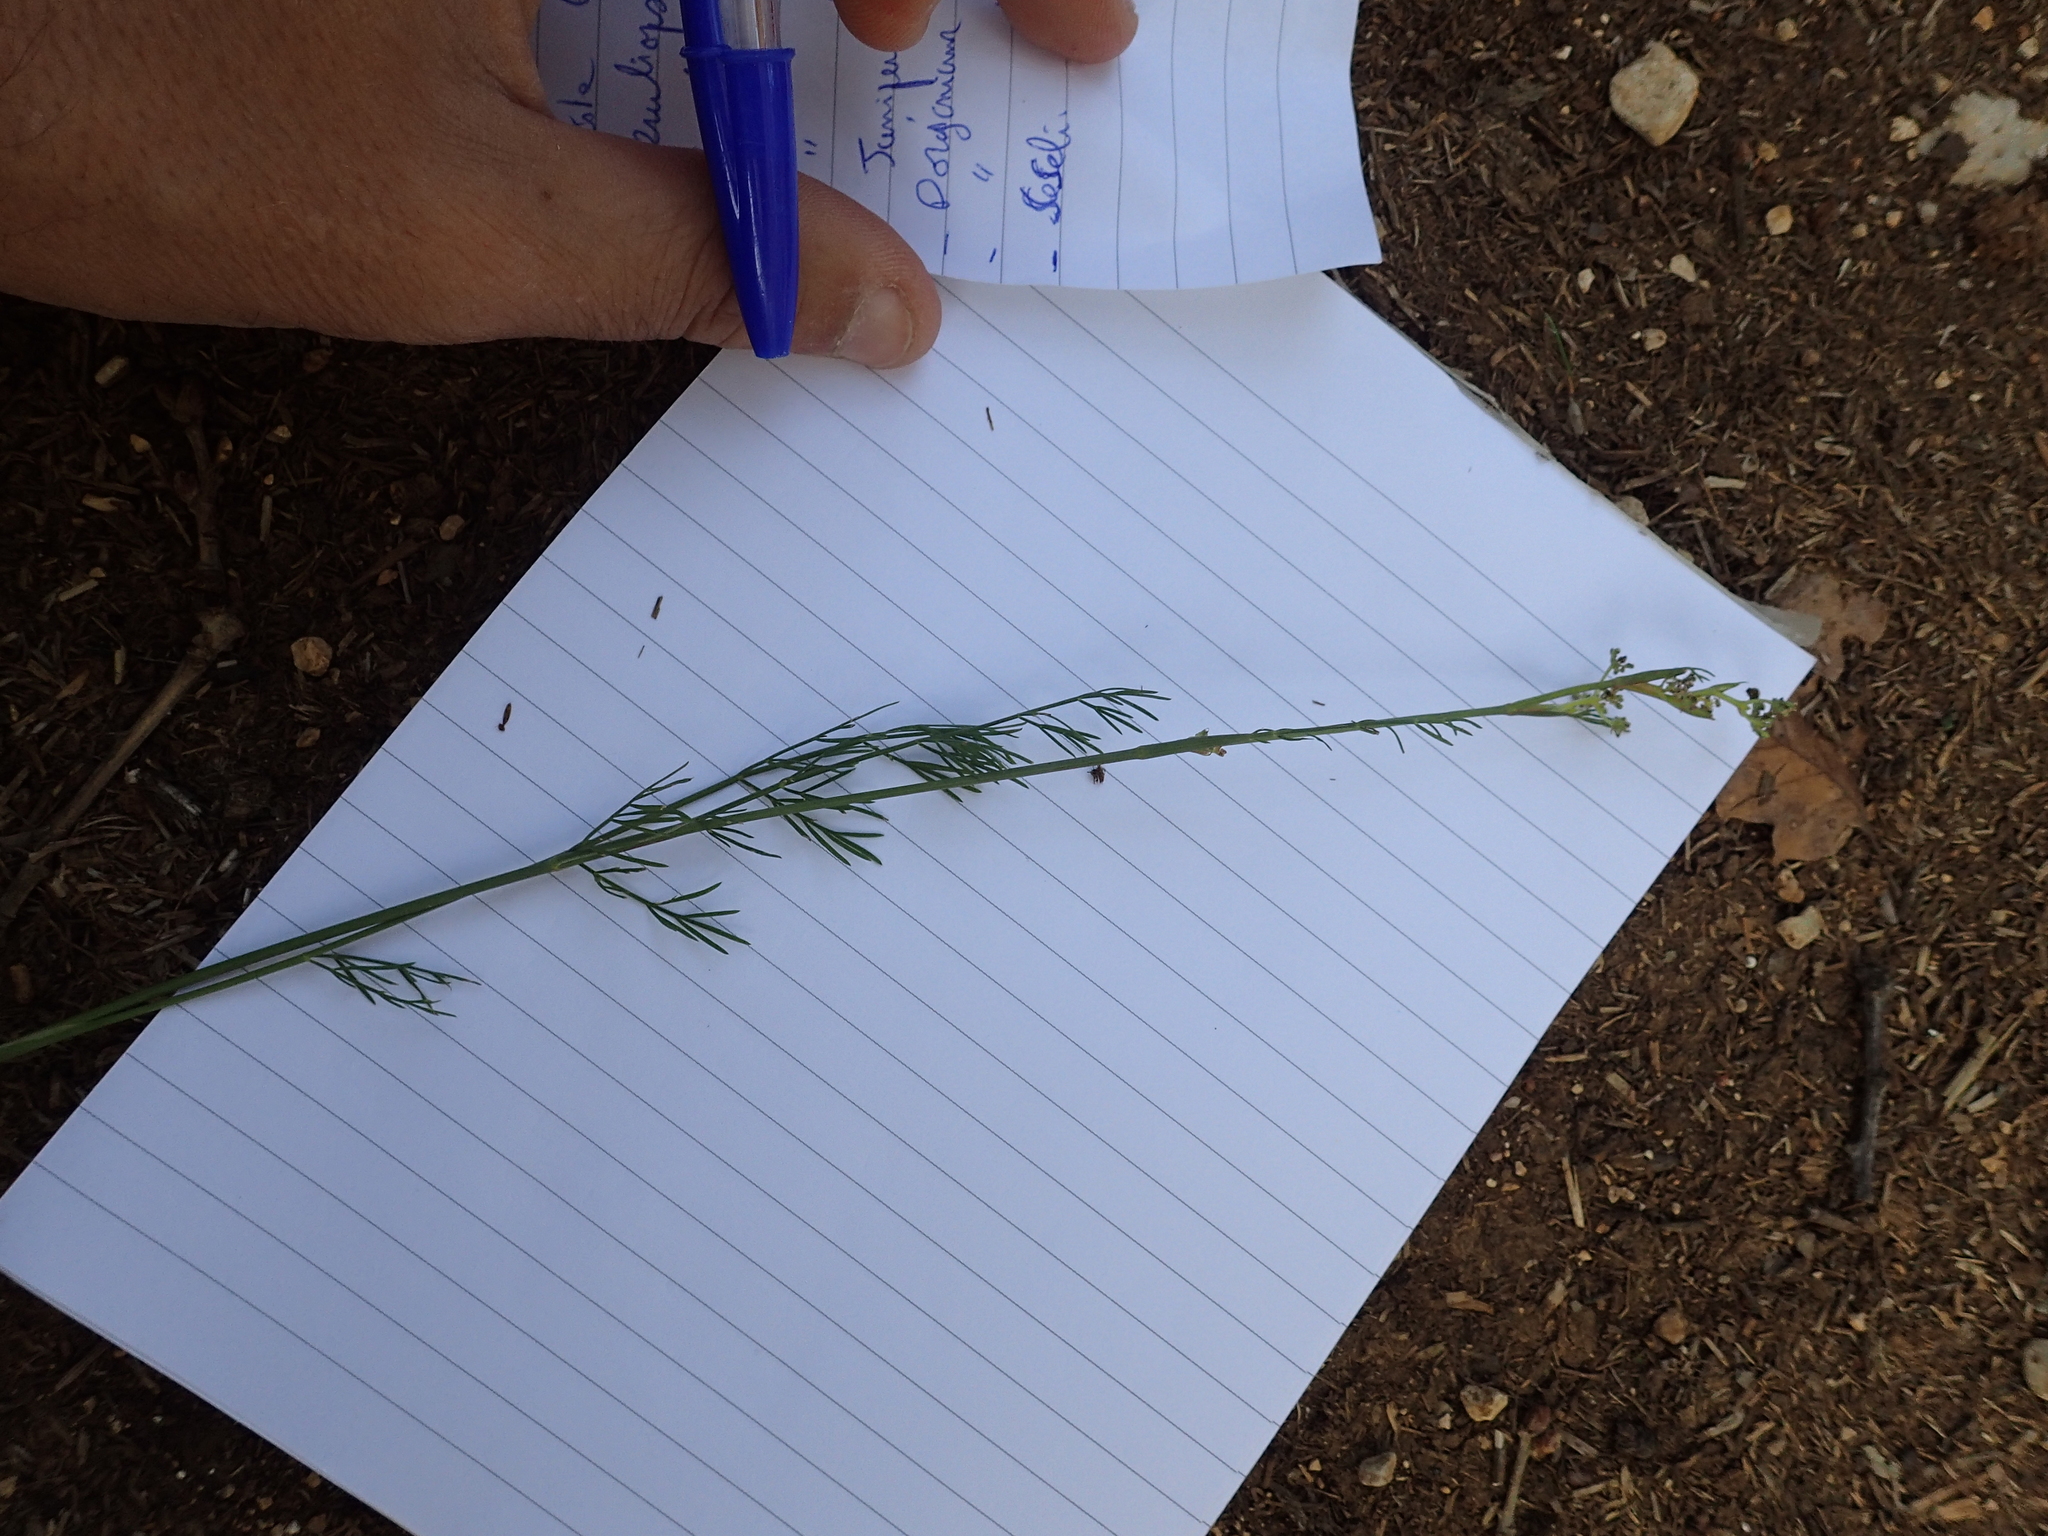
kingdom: Plantae
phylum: Tracheophyta
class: Magnoliopsida
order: Apiales
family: Apiaceae
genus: Seseli
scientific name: Seseli montanum
